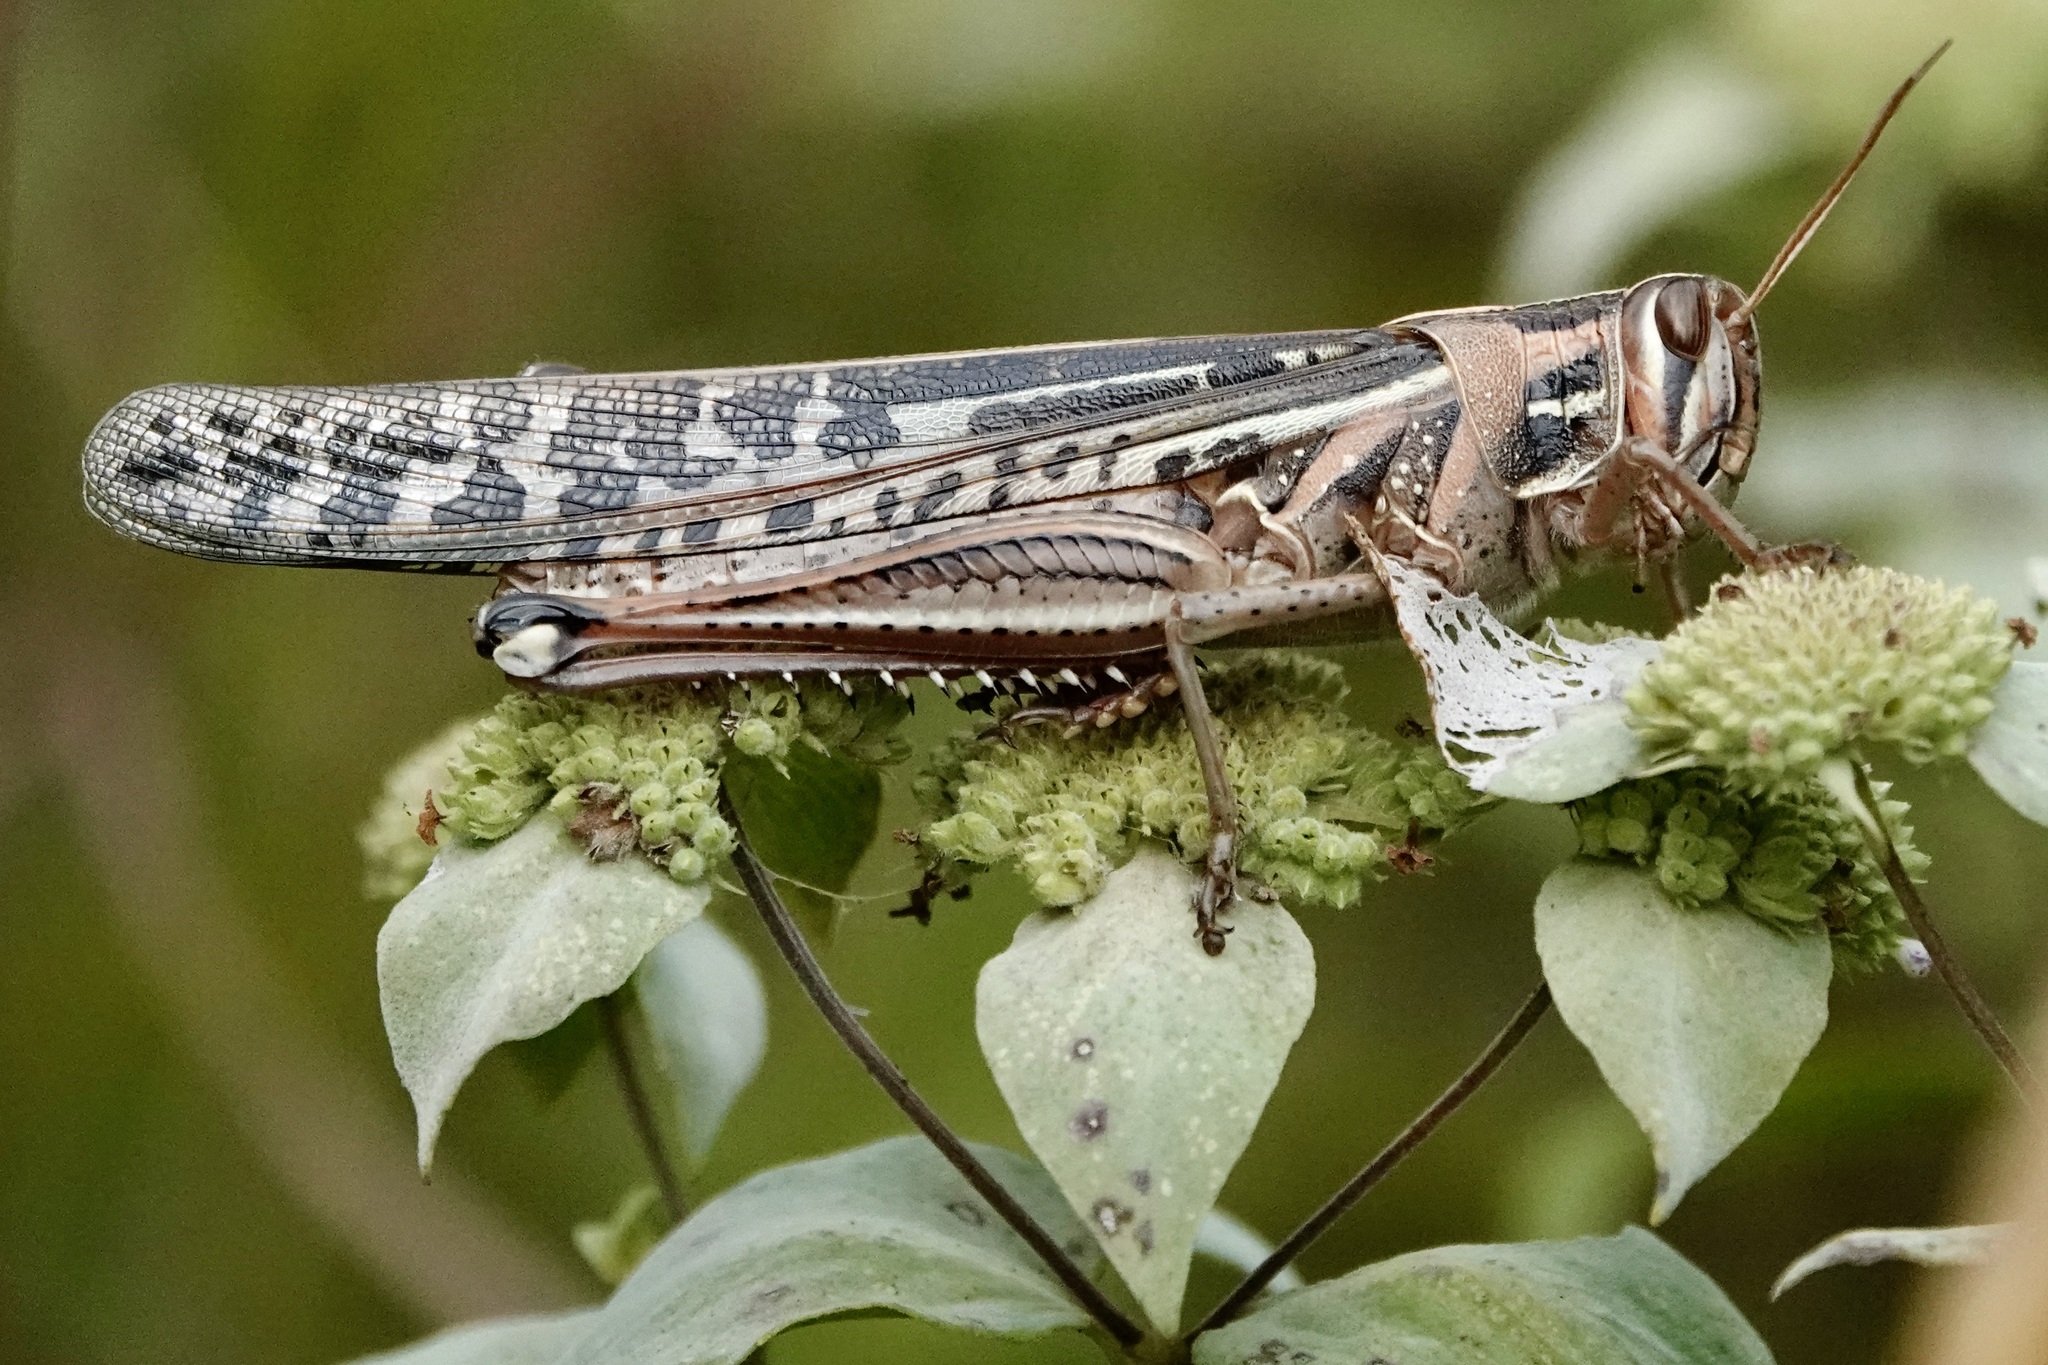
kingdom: Animalia
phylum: Arthropoda
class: Insecta
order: Orthoptera
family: Acrididae
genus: Schistocerca
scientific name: Schistocerca americana
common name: American bird locust
